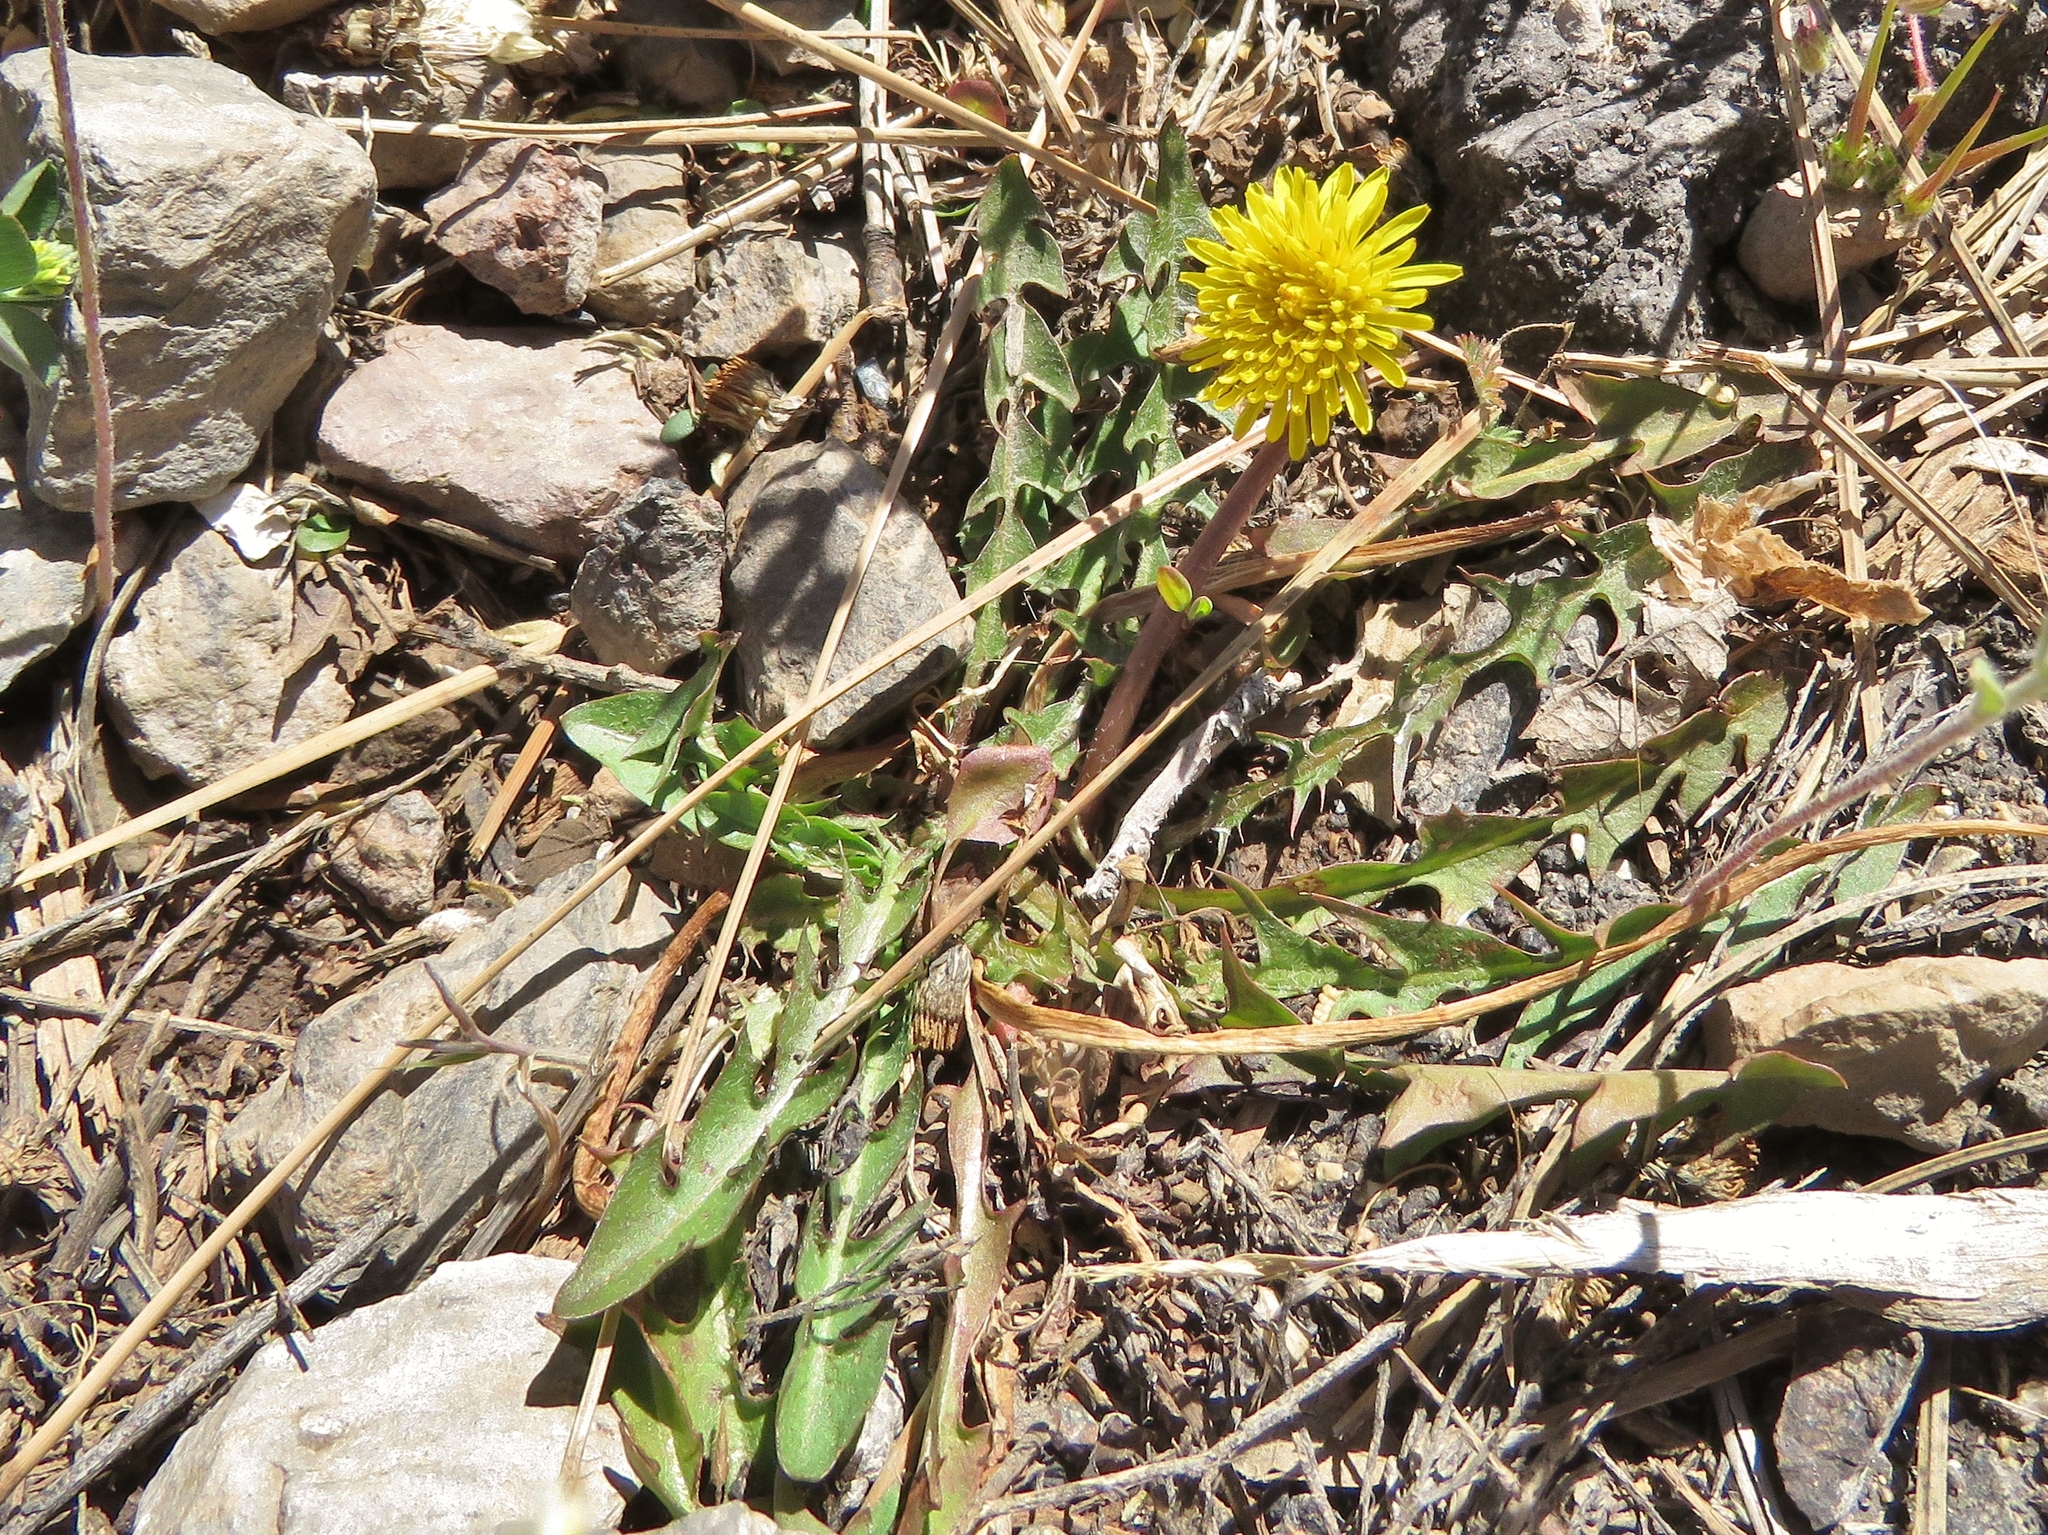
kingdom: Plantae
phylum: Tracheophyta
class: Magnoliopsida
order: Asterales
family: Asteraceae
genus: Taraxacum
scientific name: Taraxacum officinale
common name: Common dandelion
